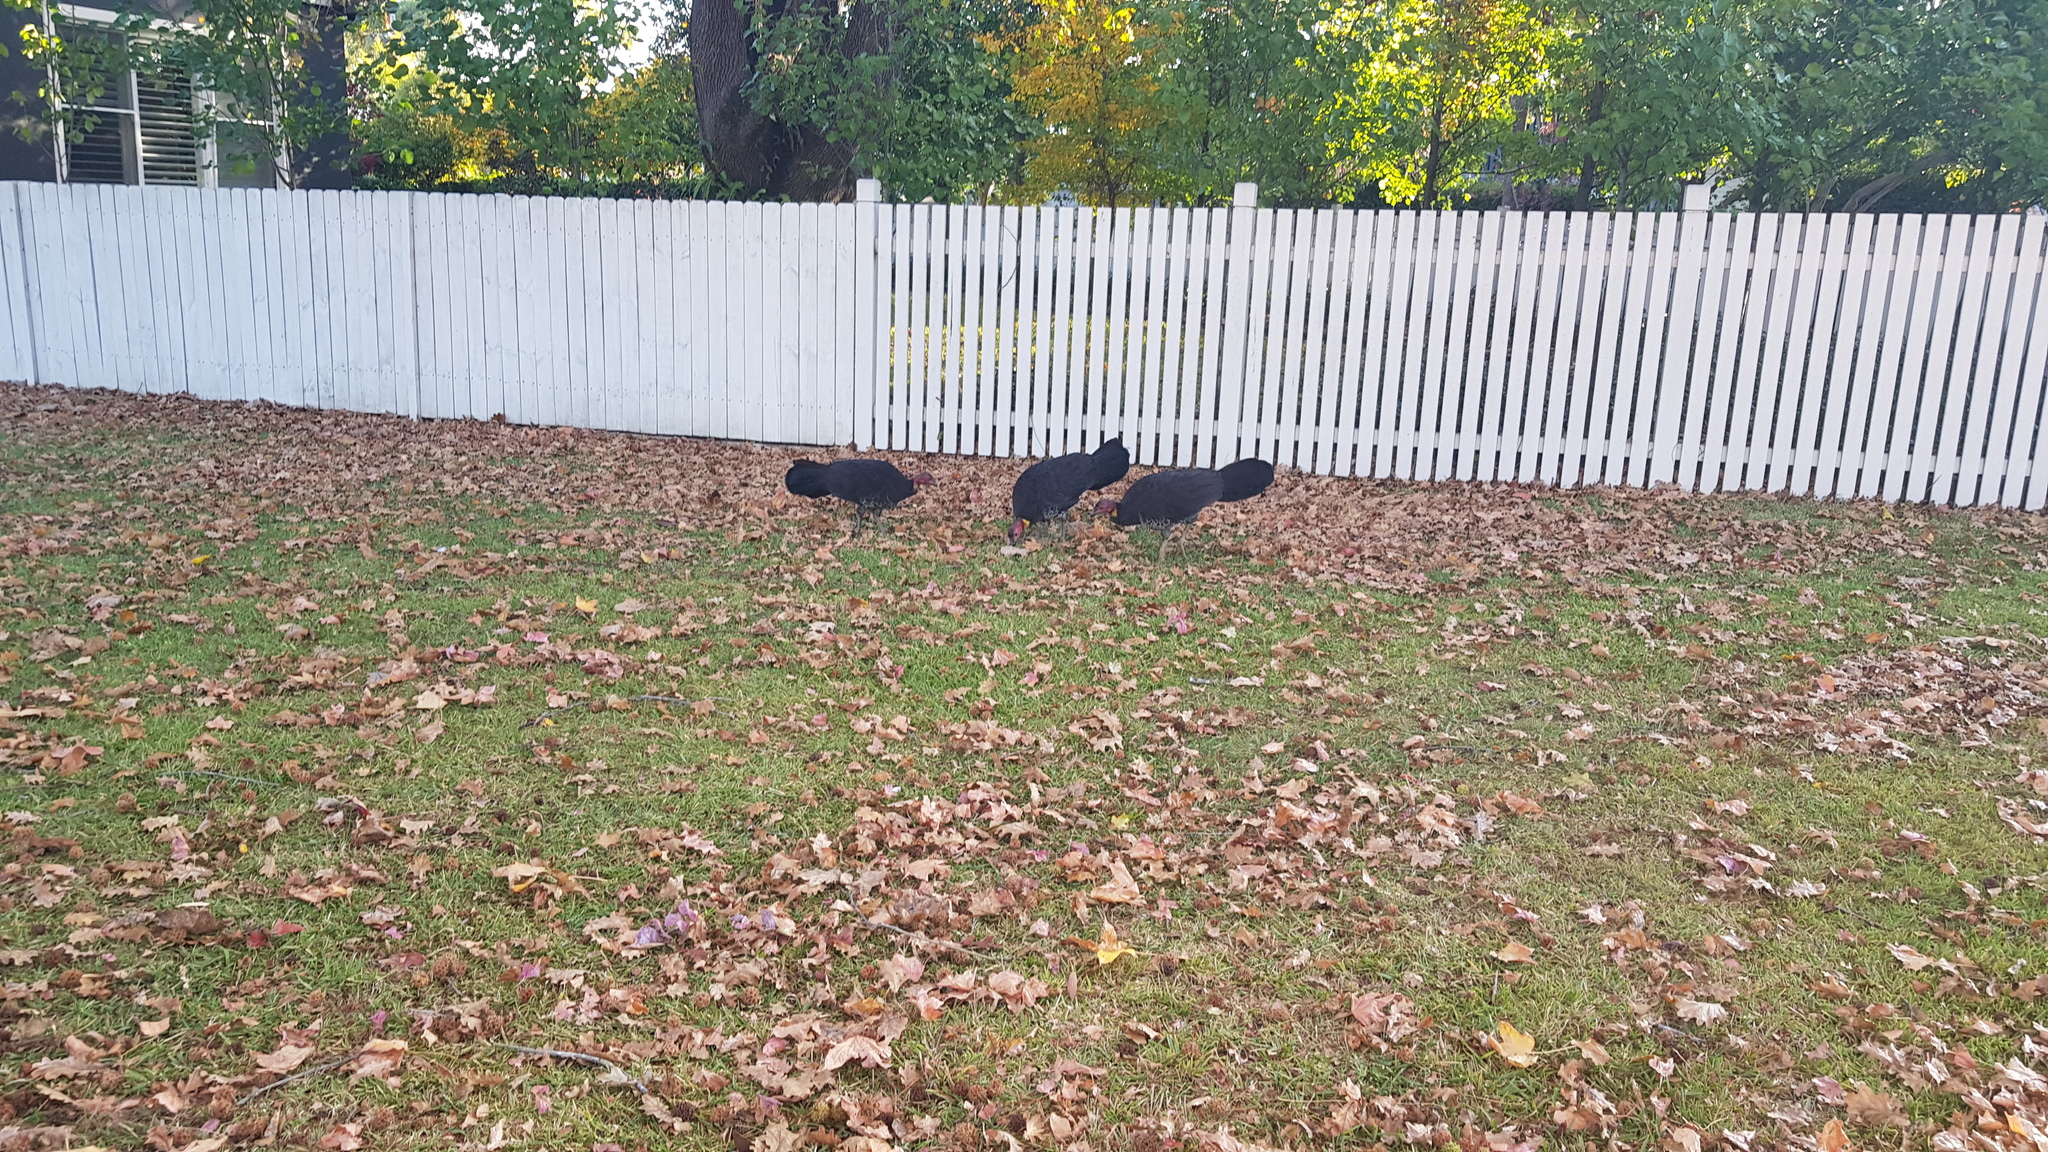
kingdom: Animalia
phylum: Chordata
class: Aves
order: Galliformes
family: Megapodiidae
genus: Alectura
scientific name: Alectura lathami
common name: Australian brushturkey
